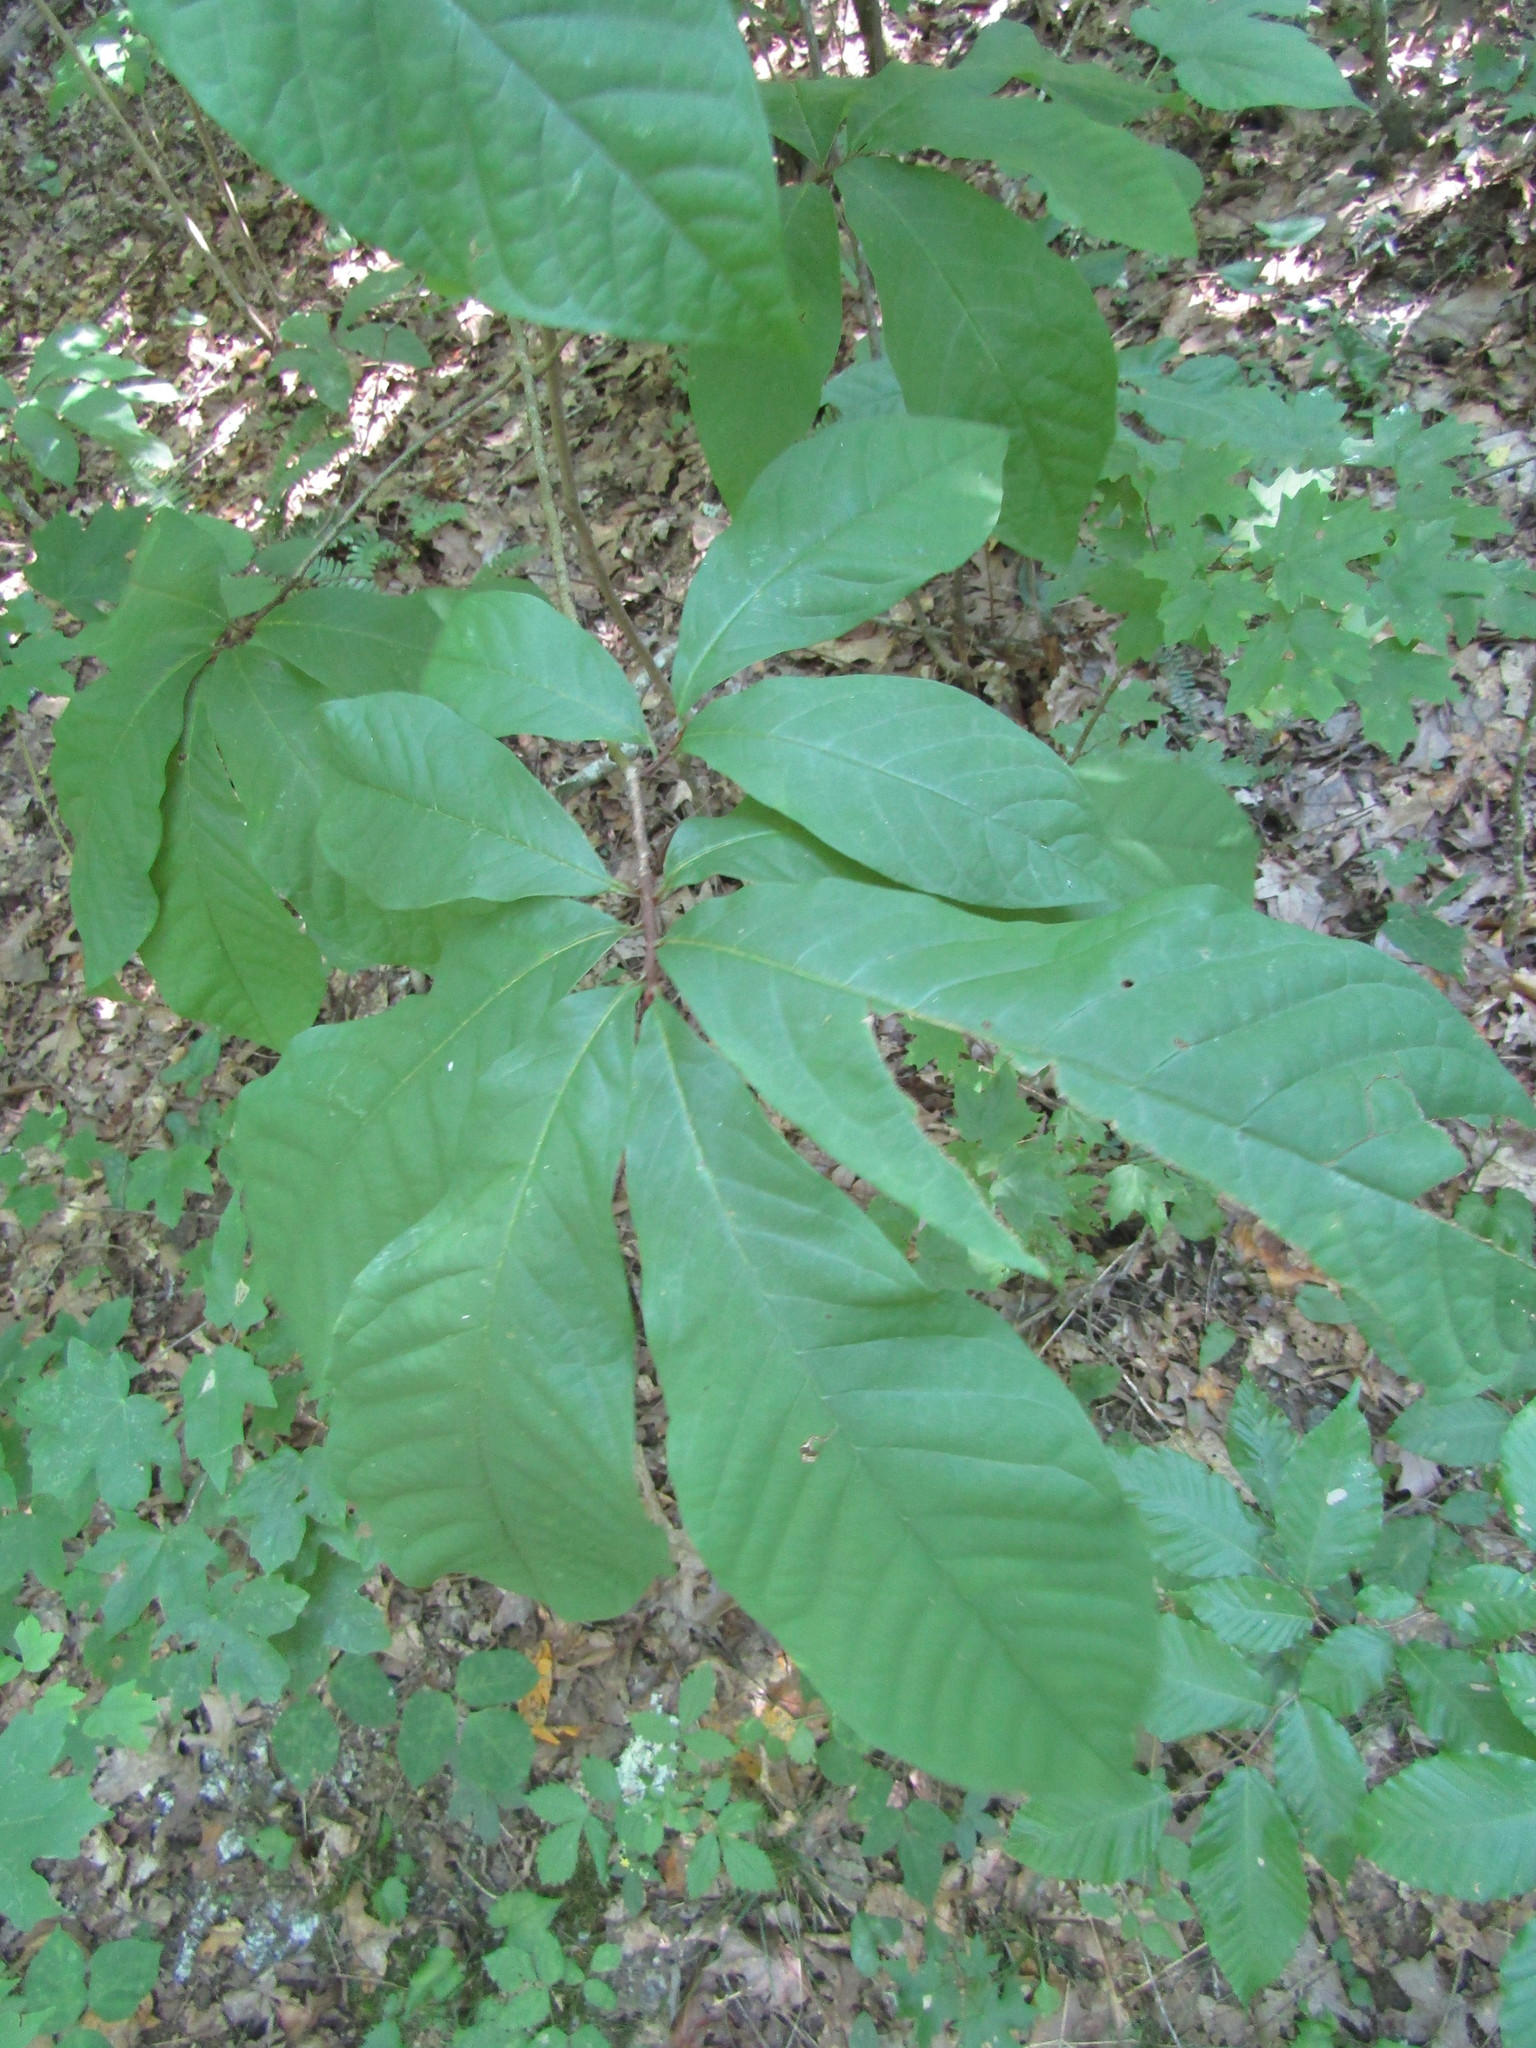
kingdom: Plantae
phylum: Tracheophyta
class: Magnoliopsida
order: Magnoliales
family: Annonaceae
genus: Asimina
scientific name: Asimina triloba
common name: Dog-banana
